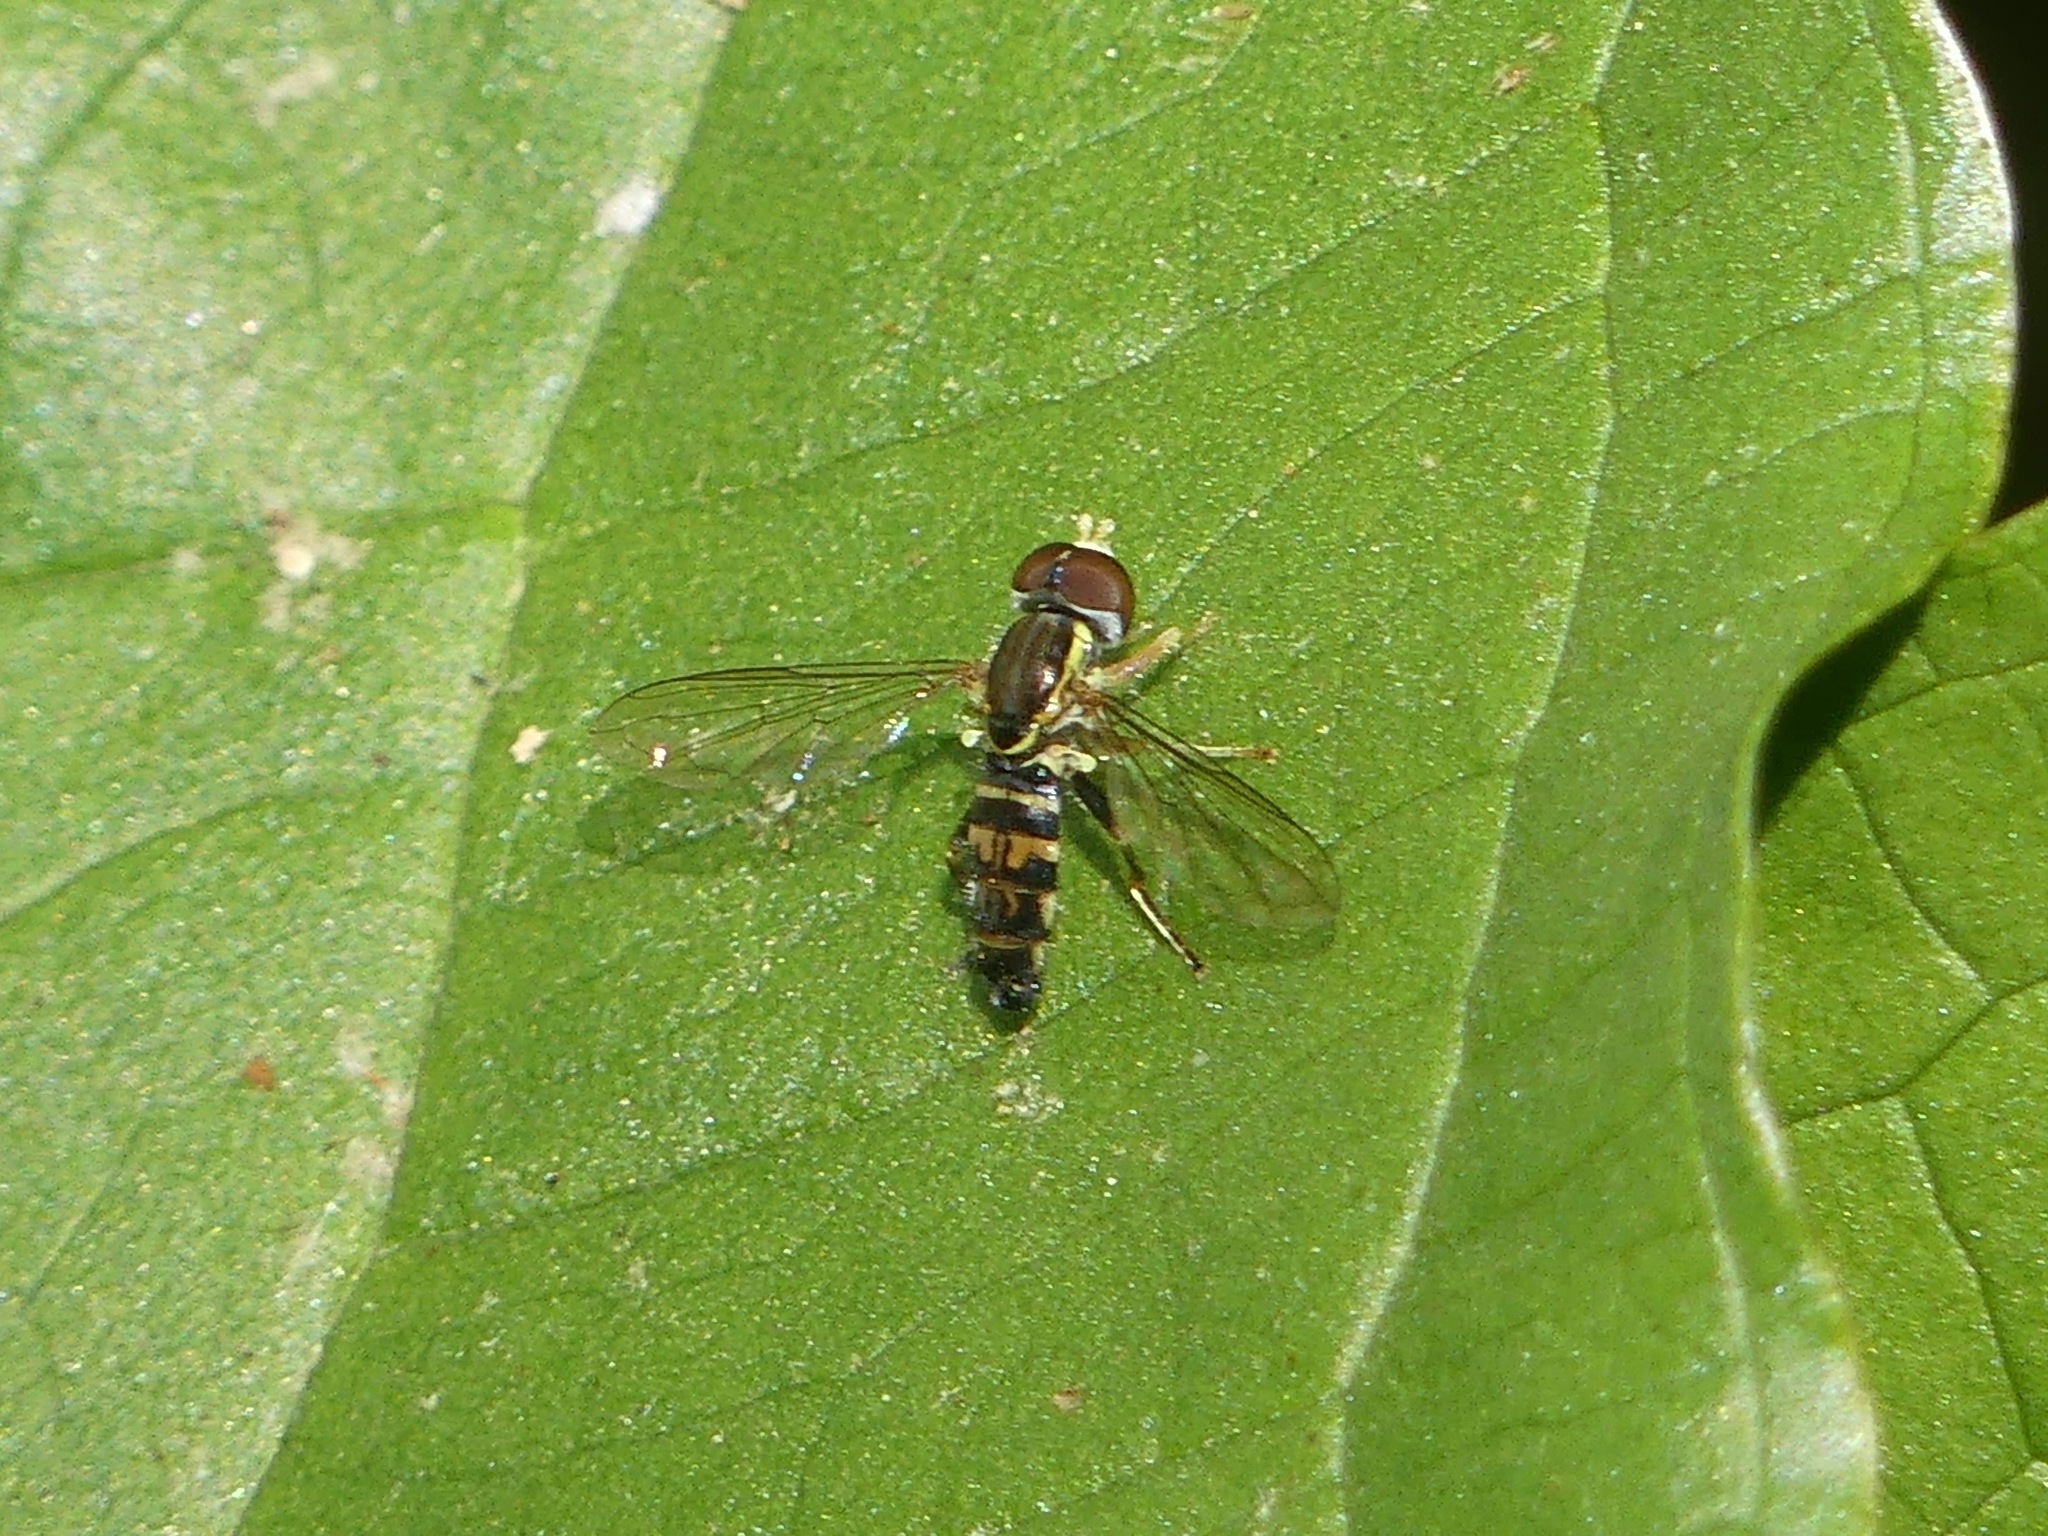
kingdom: Animalia
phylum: Arthropoda
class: Insecta
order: Diptera
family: Syrphidae
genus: Toxomerus
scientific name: Toxomerus geminatus
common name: Eastern calligrapher
